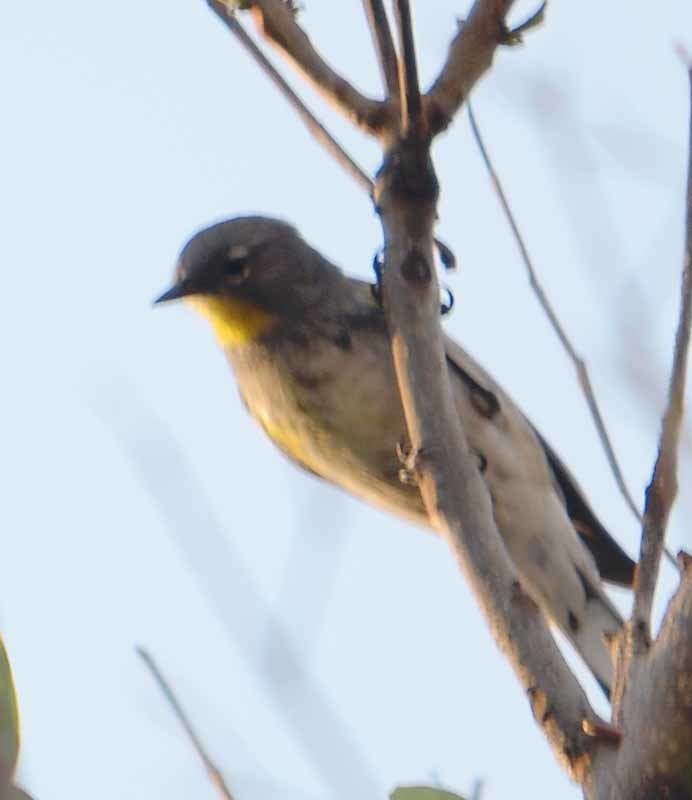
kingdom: Animalia
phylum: Chordata
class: Aves
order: Passeriformes
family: Parulidae
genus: Setophaga
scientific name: Setophaga coronata
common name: Myrtle warbler
